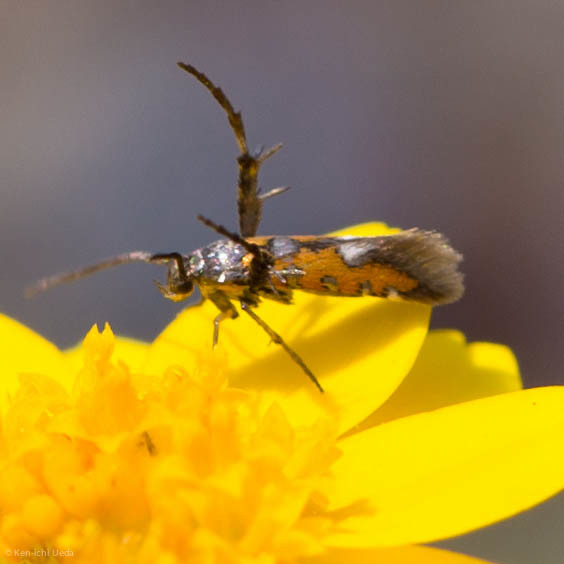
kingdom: Animalia
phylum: Arthropoda
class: Insecta
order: Lepidoptera
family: Heliodinidae
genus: Heliodines
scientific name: Heliodines Aetole extraneella
